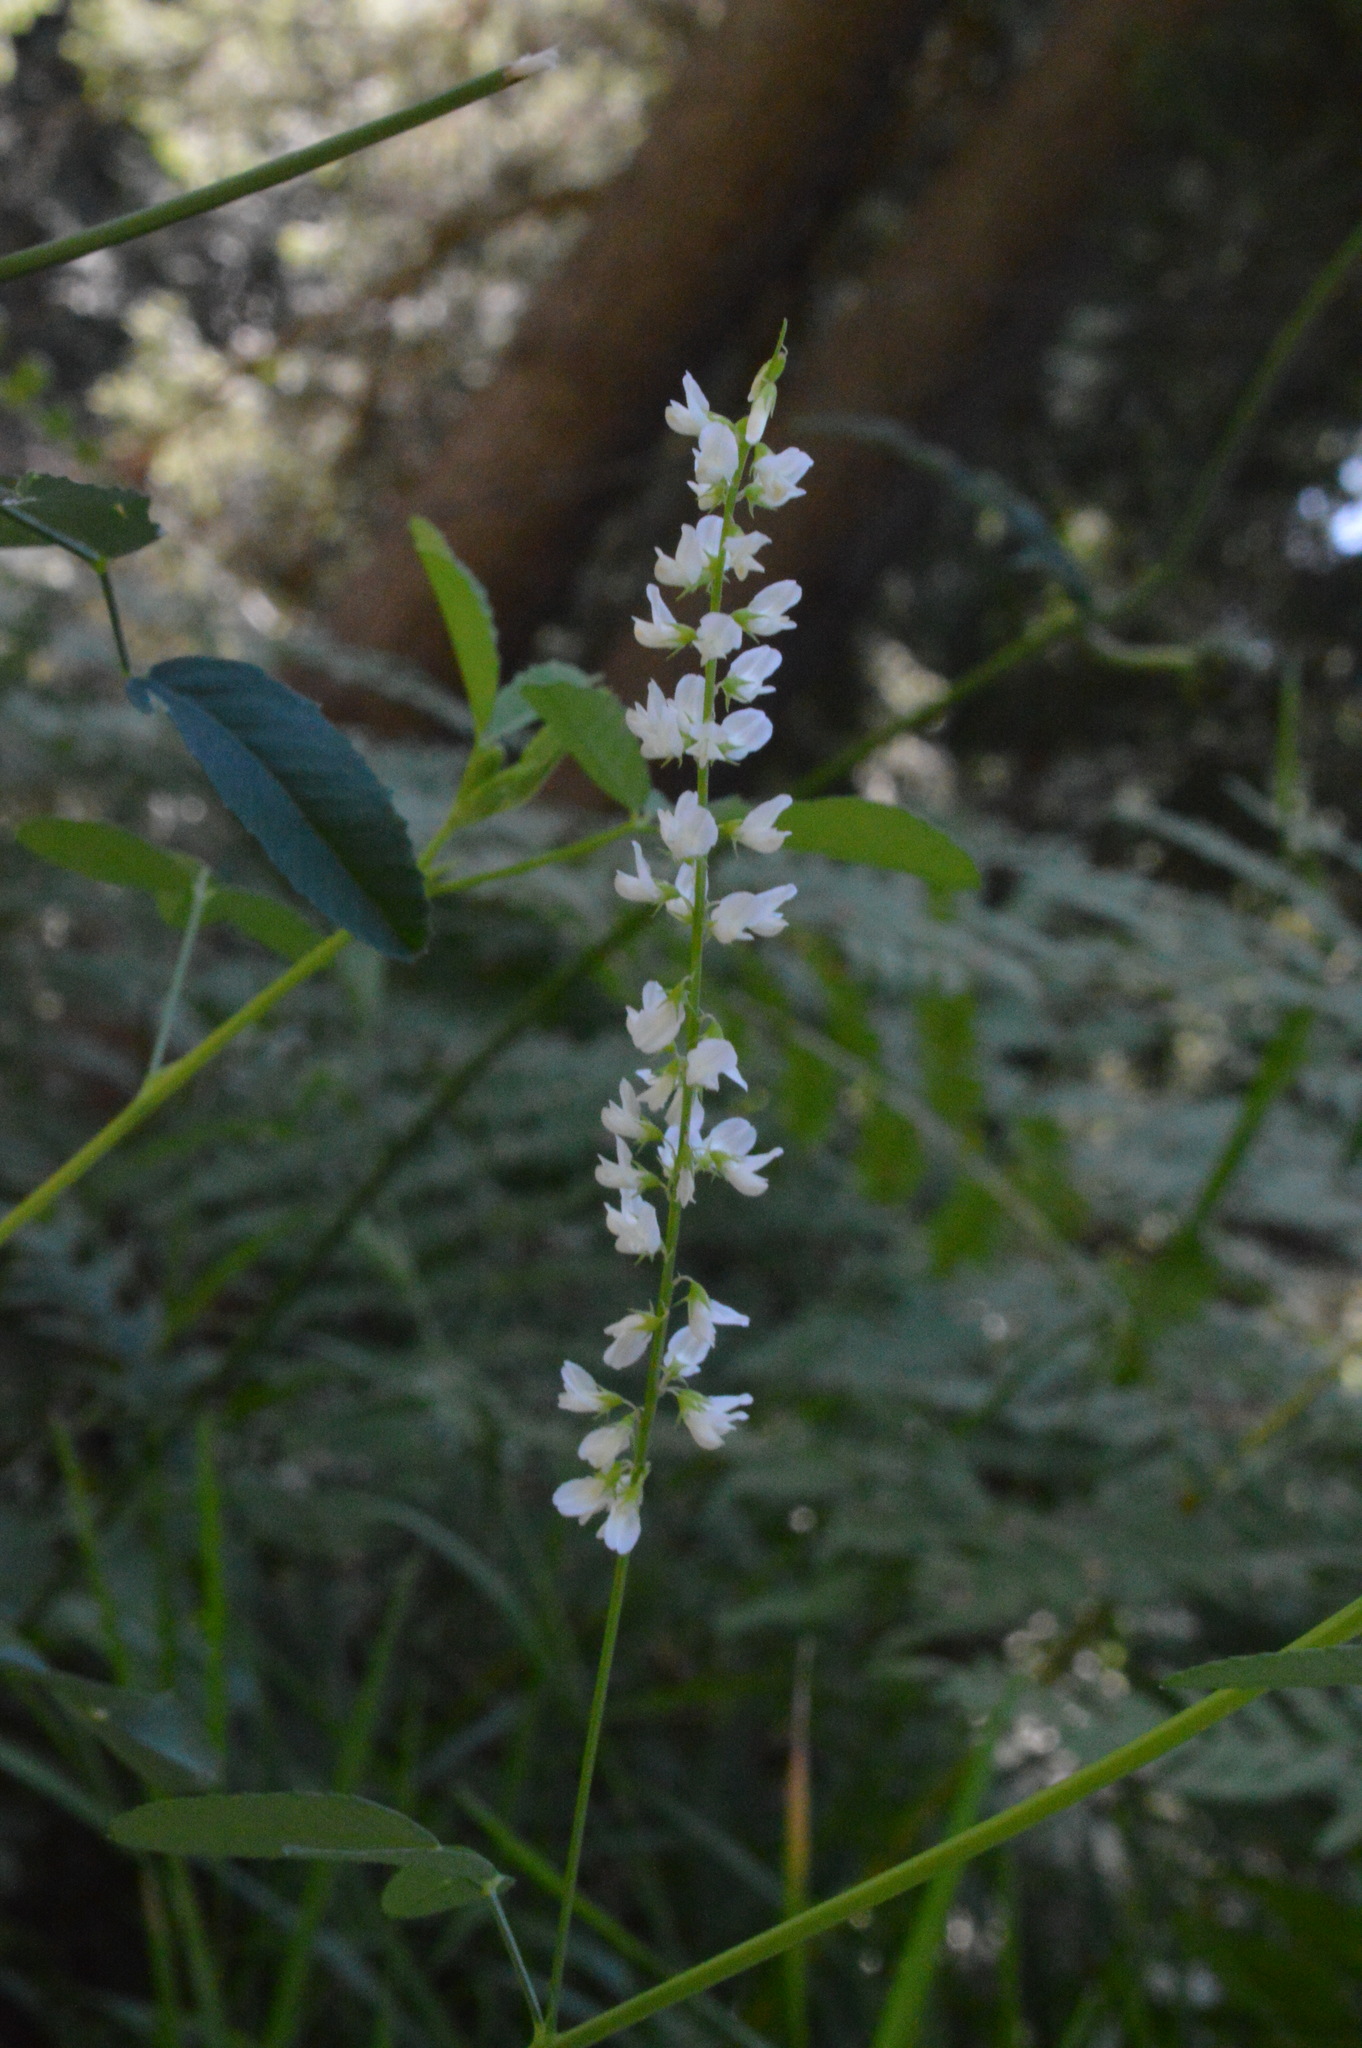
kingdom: Plantae
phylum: Tracheophyta
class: Magnoliopsida
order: Fabales
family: Fabaceae
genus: Melilotus
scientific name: Melilotus albus
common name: White melilot
